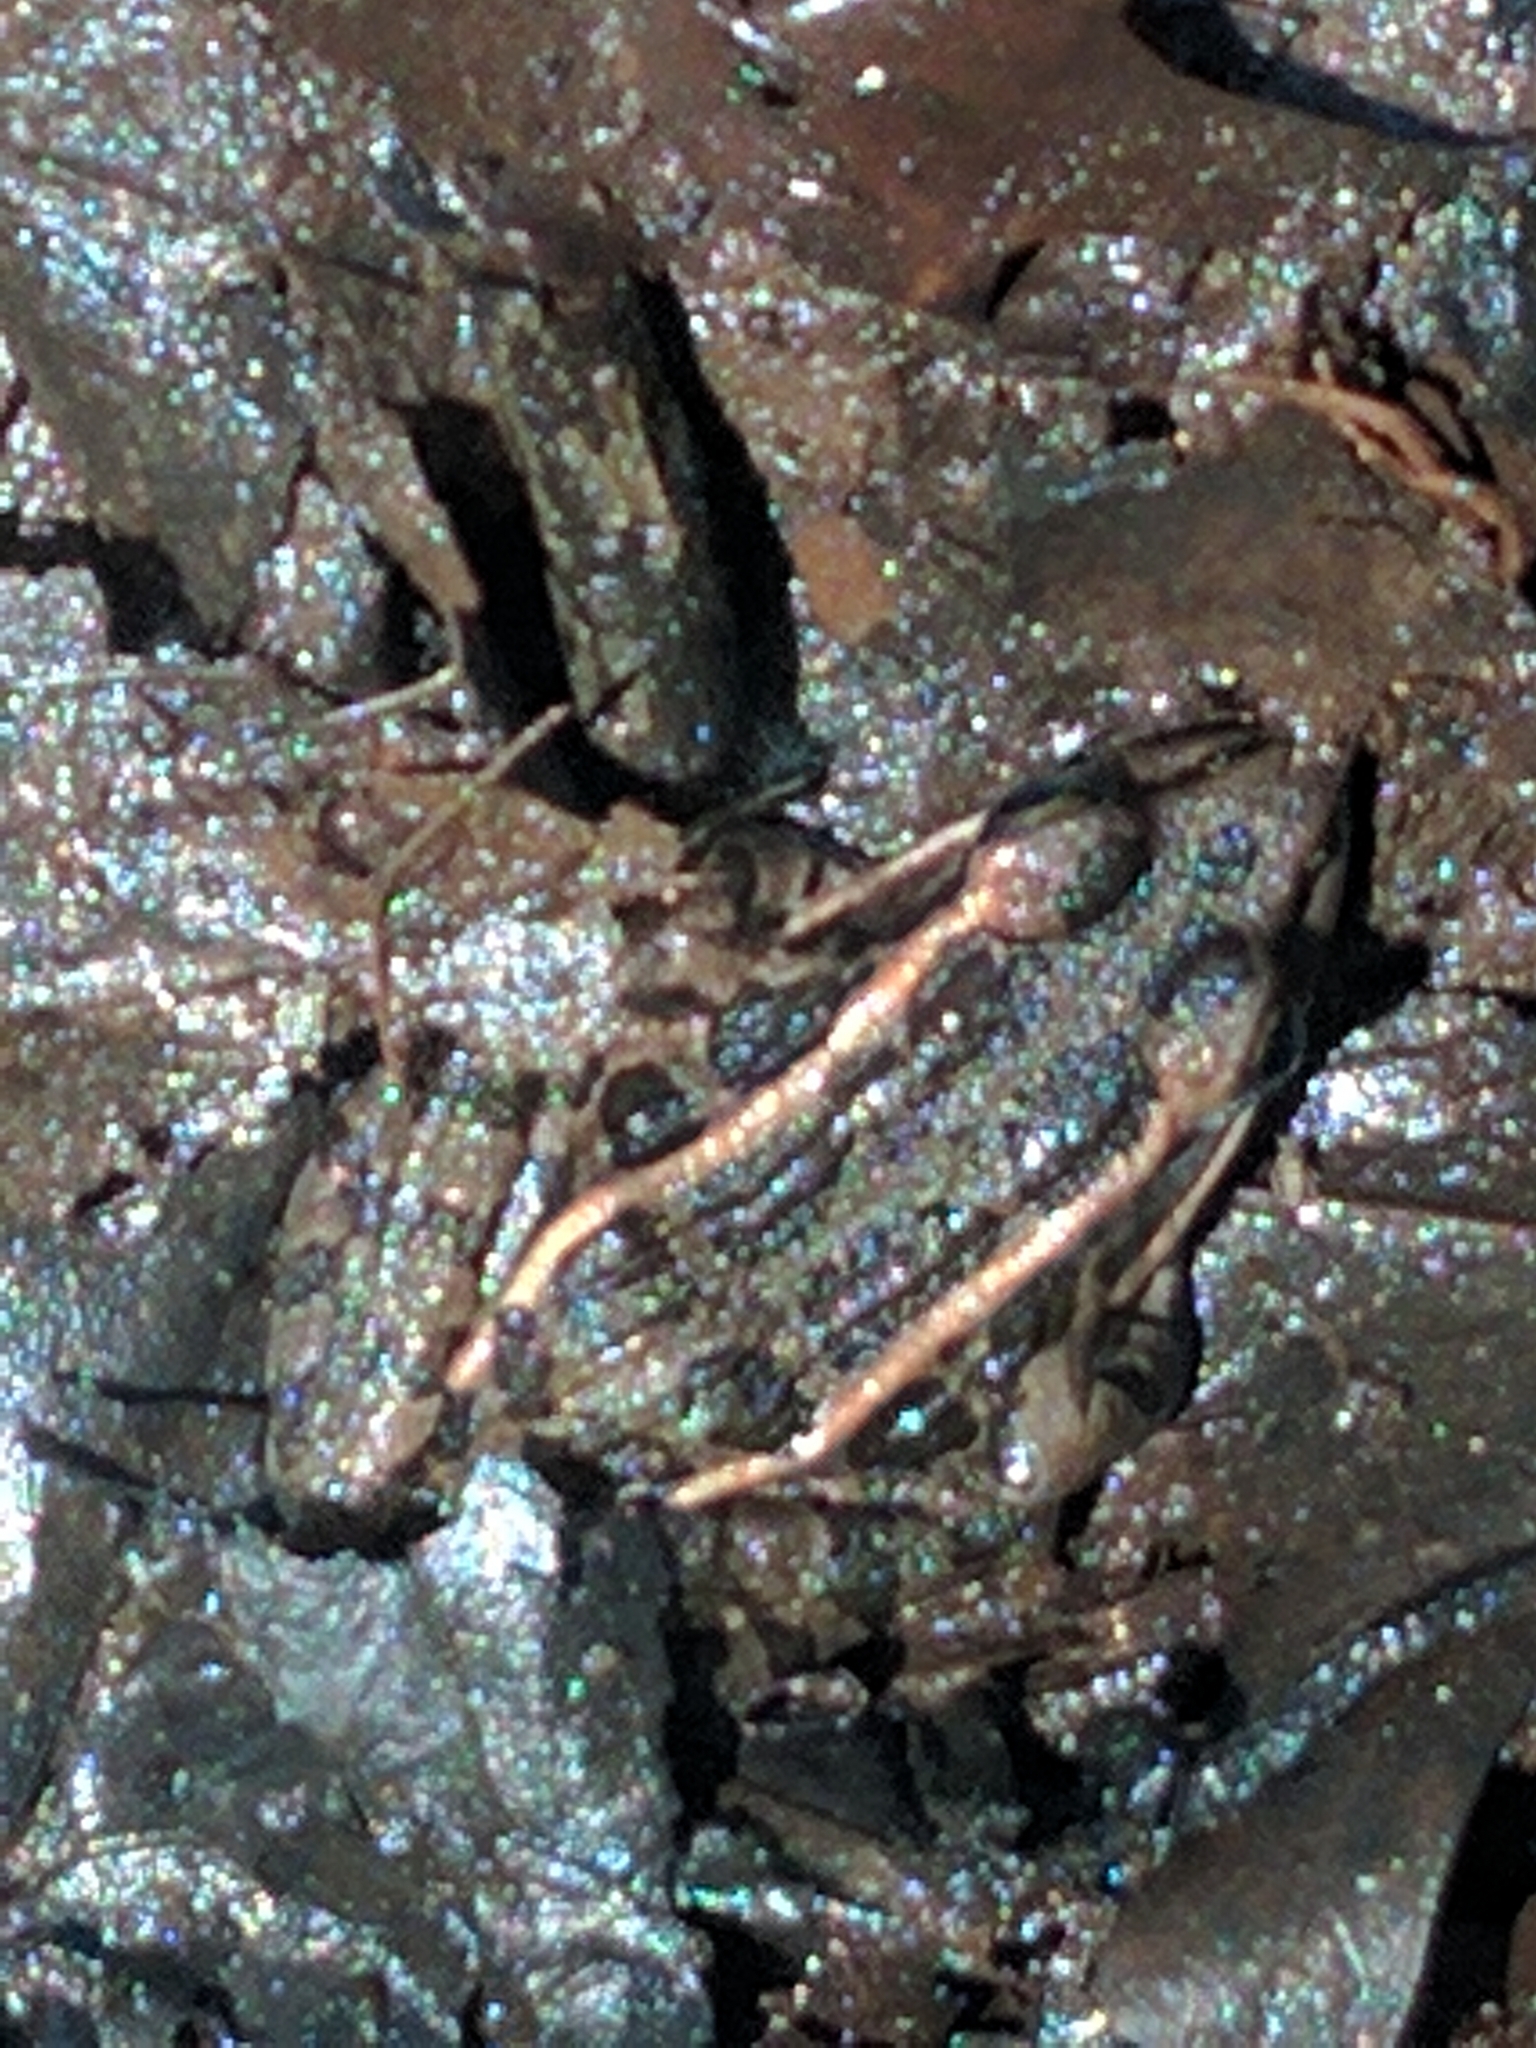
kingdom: Animalia
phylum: Chordata
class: Amphibia
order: Anura
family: Ranidae
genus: Lithobates
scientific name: Lithobates palustris
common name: Pickerel frog
